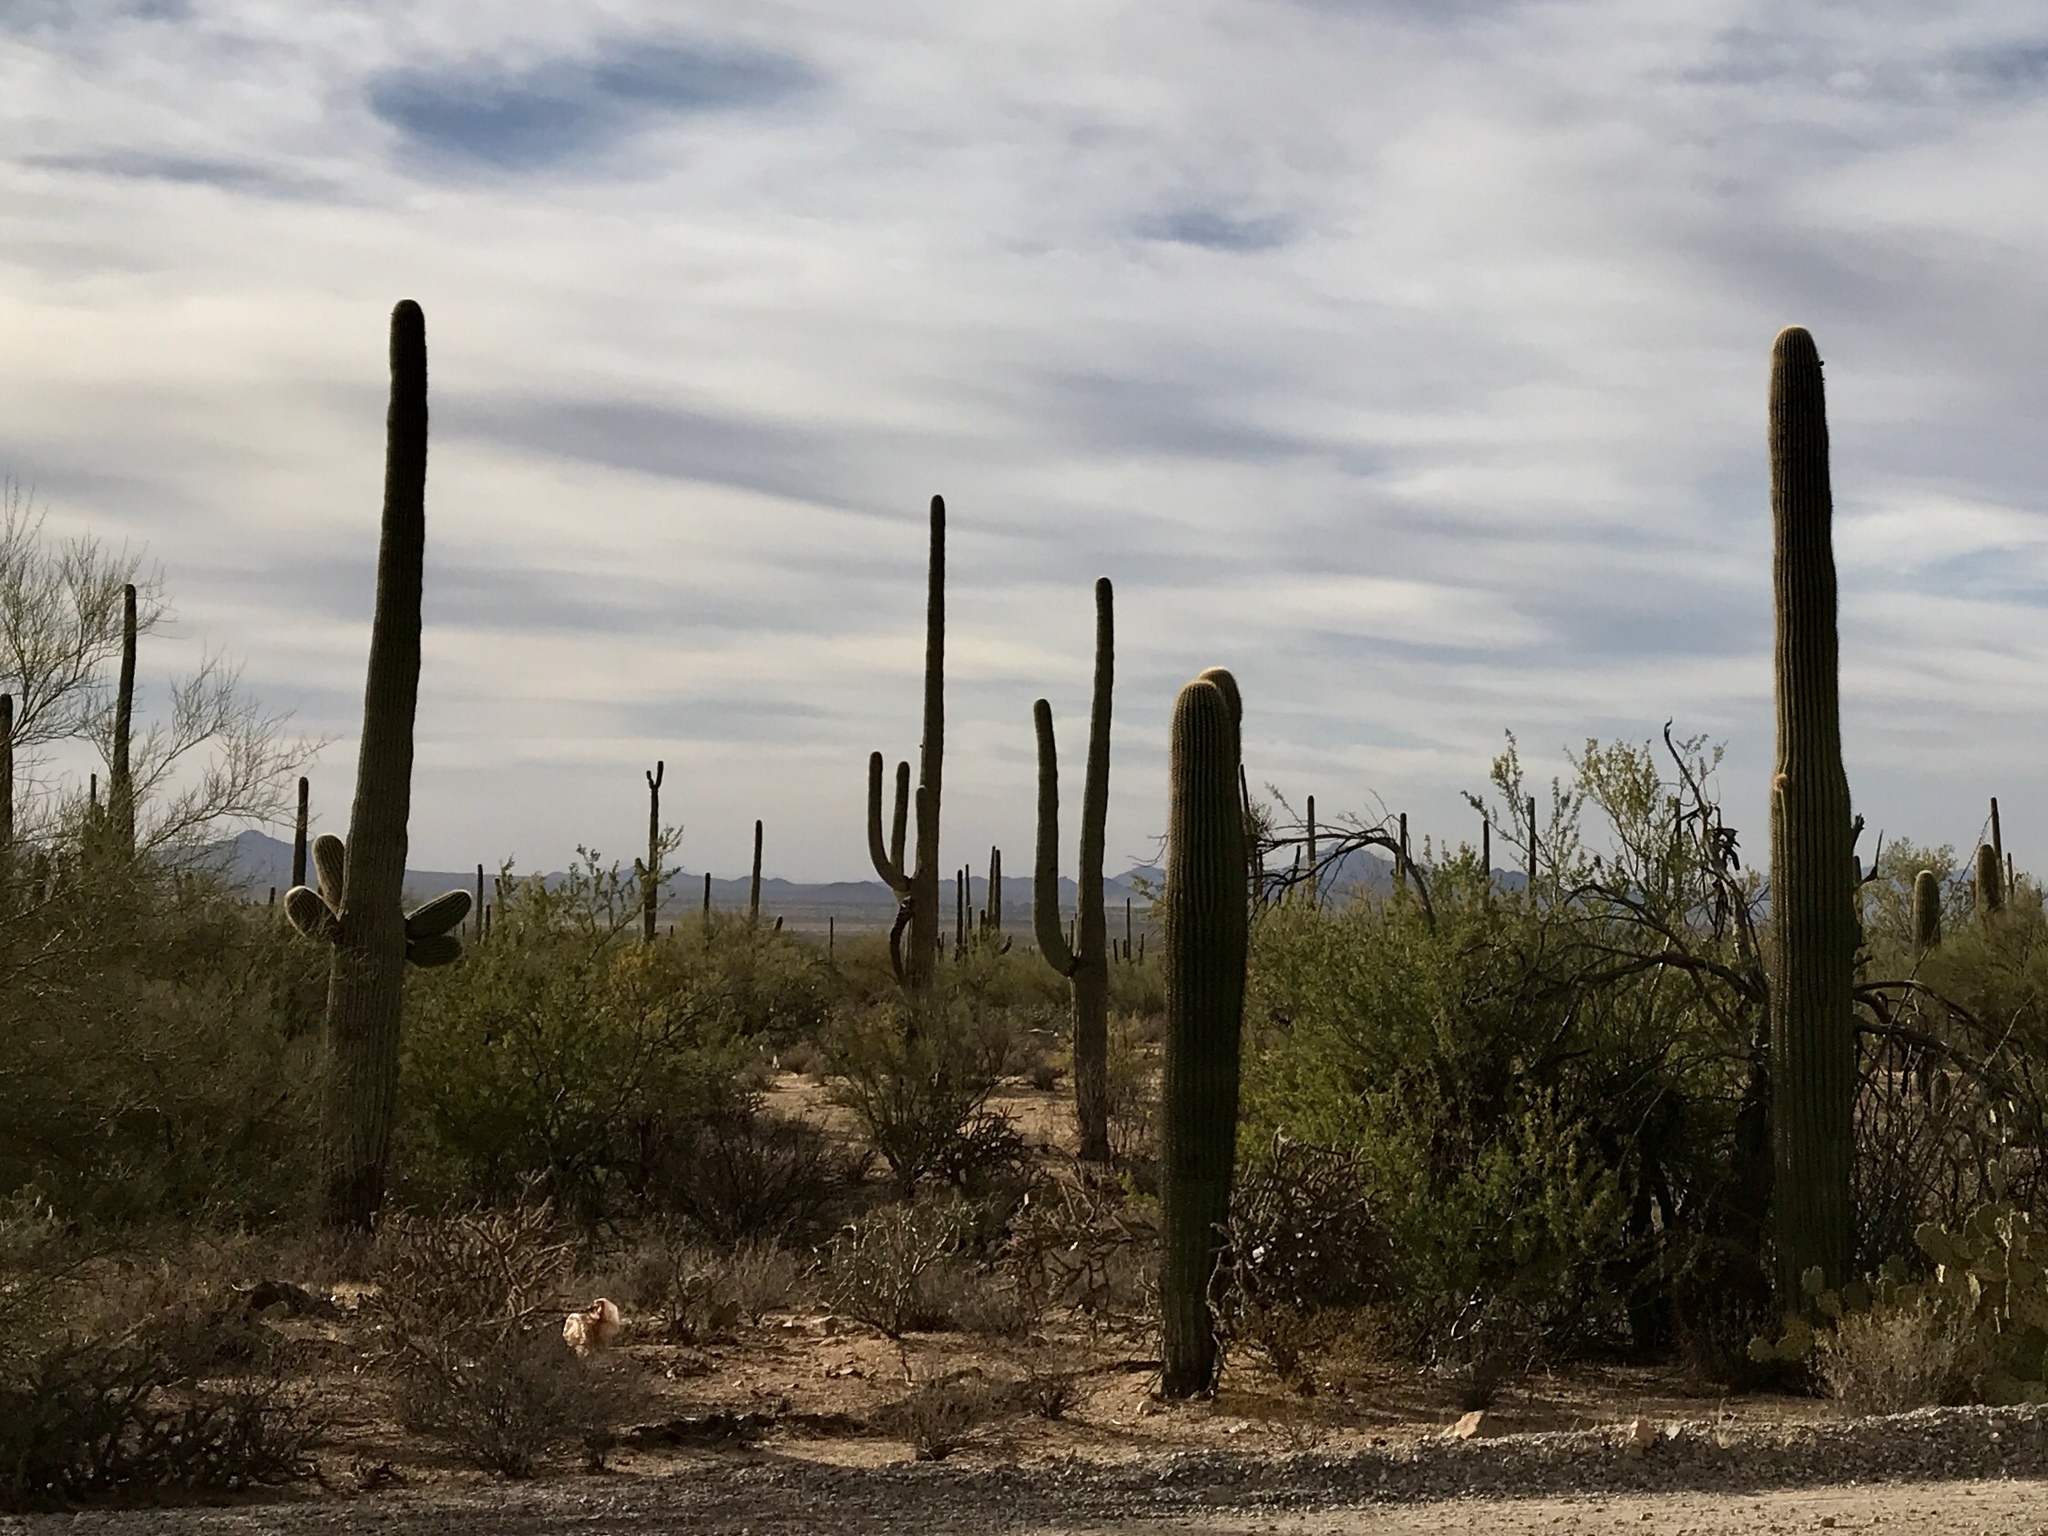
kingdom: Plantae
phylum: Tracheophyta
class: Magnoliopsida
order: Caryophyllales
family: Cactaceae
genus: Carnegiea
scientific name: Carnegiea gigantea
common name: Saguaro
